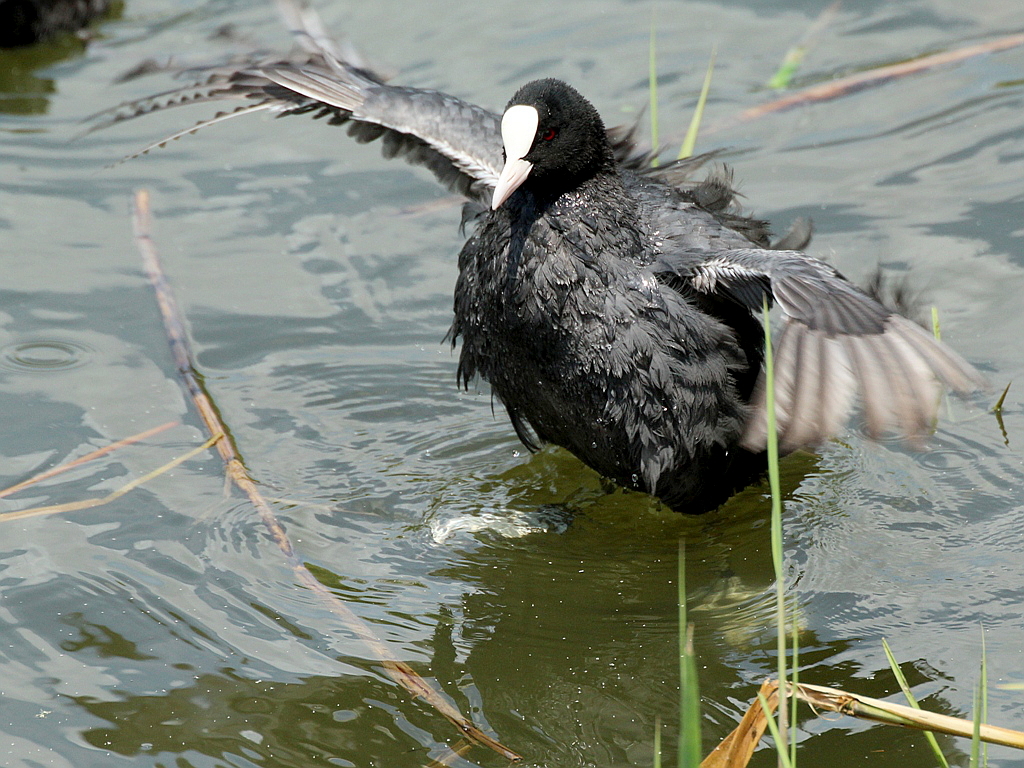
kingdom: Animalia
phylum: Chordata
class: Aves
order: Gruiformes
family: Rallidae
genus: Fulica
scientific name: Fulica atra
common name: Eurasian coot
